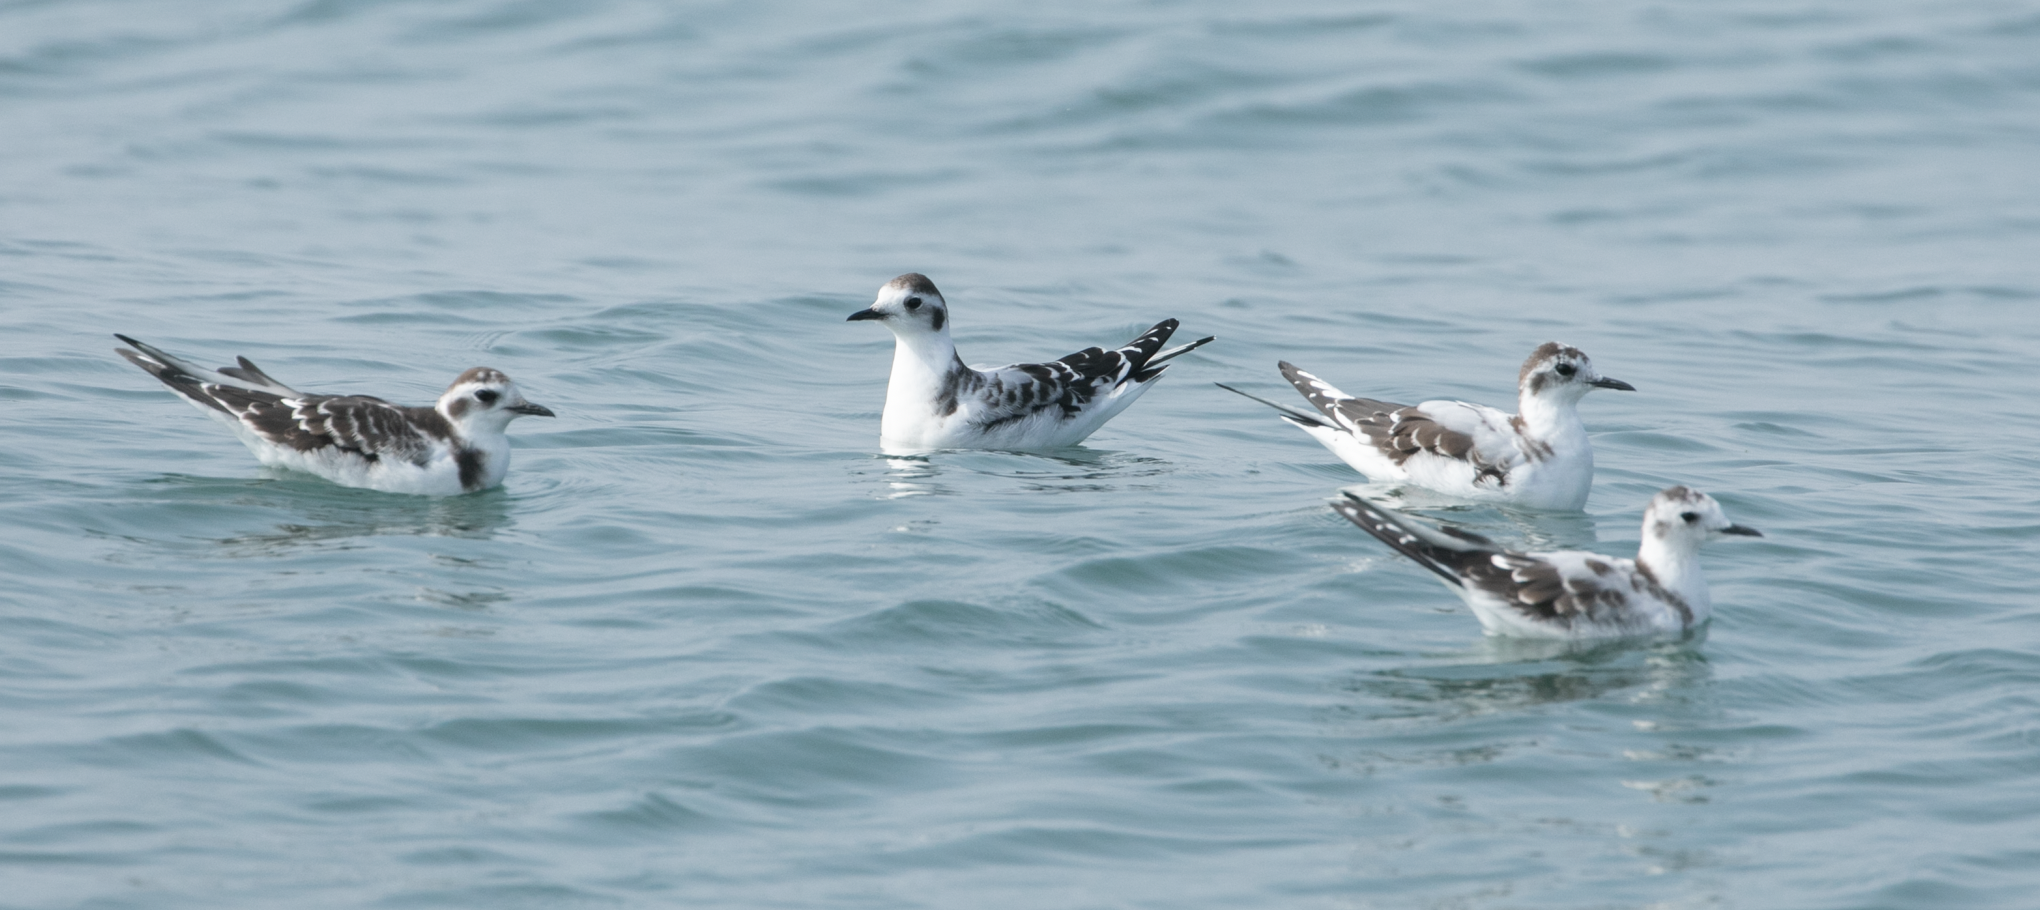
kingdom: Animalia
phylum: Chordata
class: Aves
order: Charadriiformes
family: Laridae
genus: Hydrocoloeus
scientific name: Hydrocoloeus minutus
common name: Little gull
